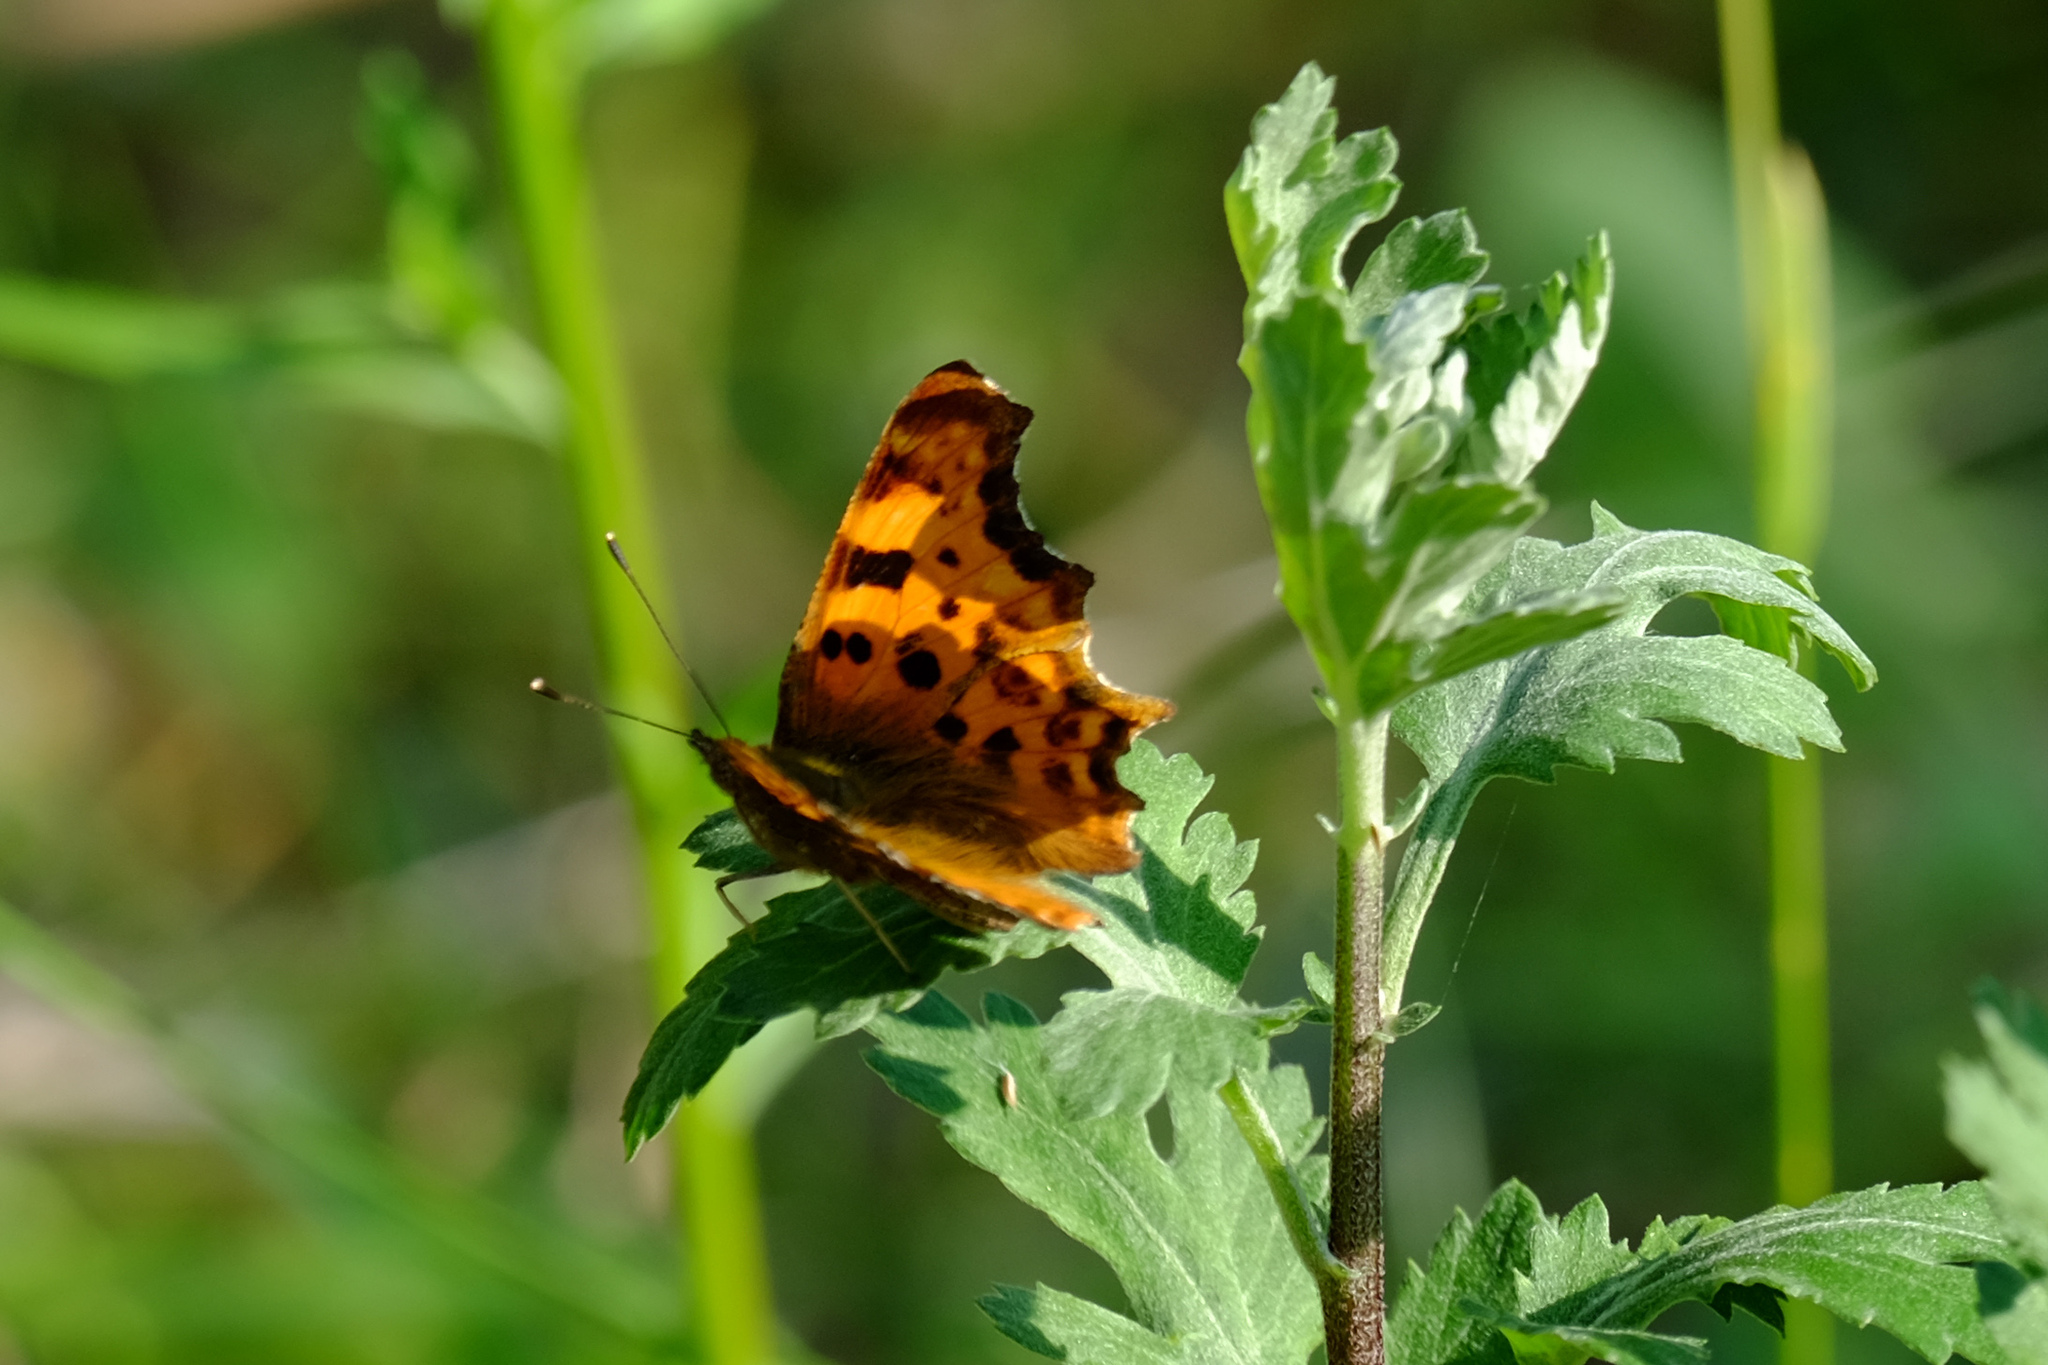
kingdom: Animalia
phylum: Arthropoda
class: Insecta
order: Lepidoptera
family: Nymphalidae
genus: Polygonia
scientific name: Polygonia c-album
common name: Comma
